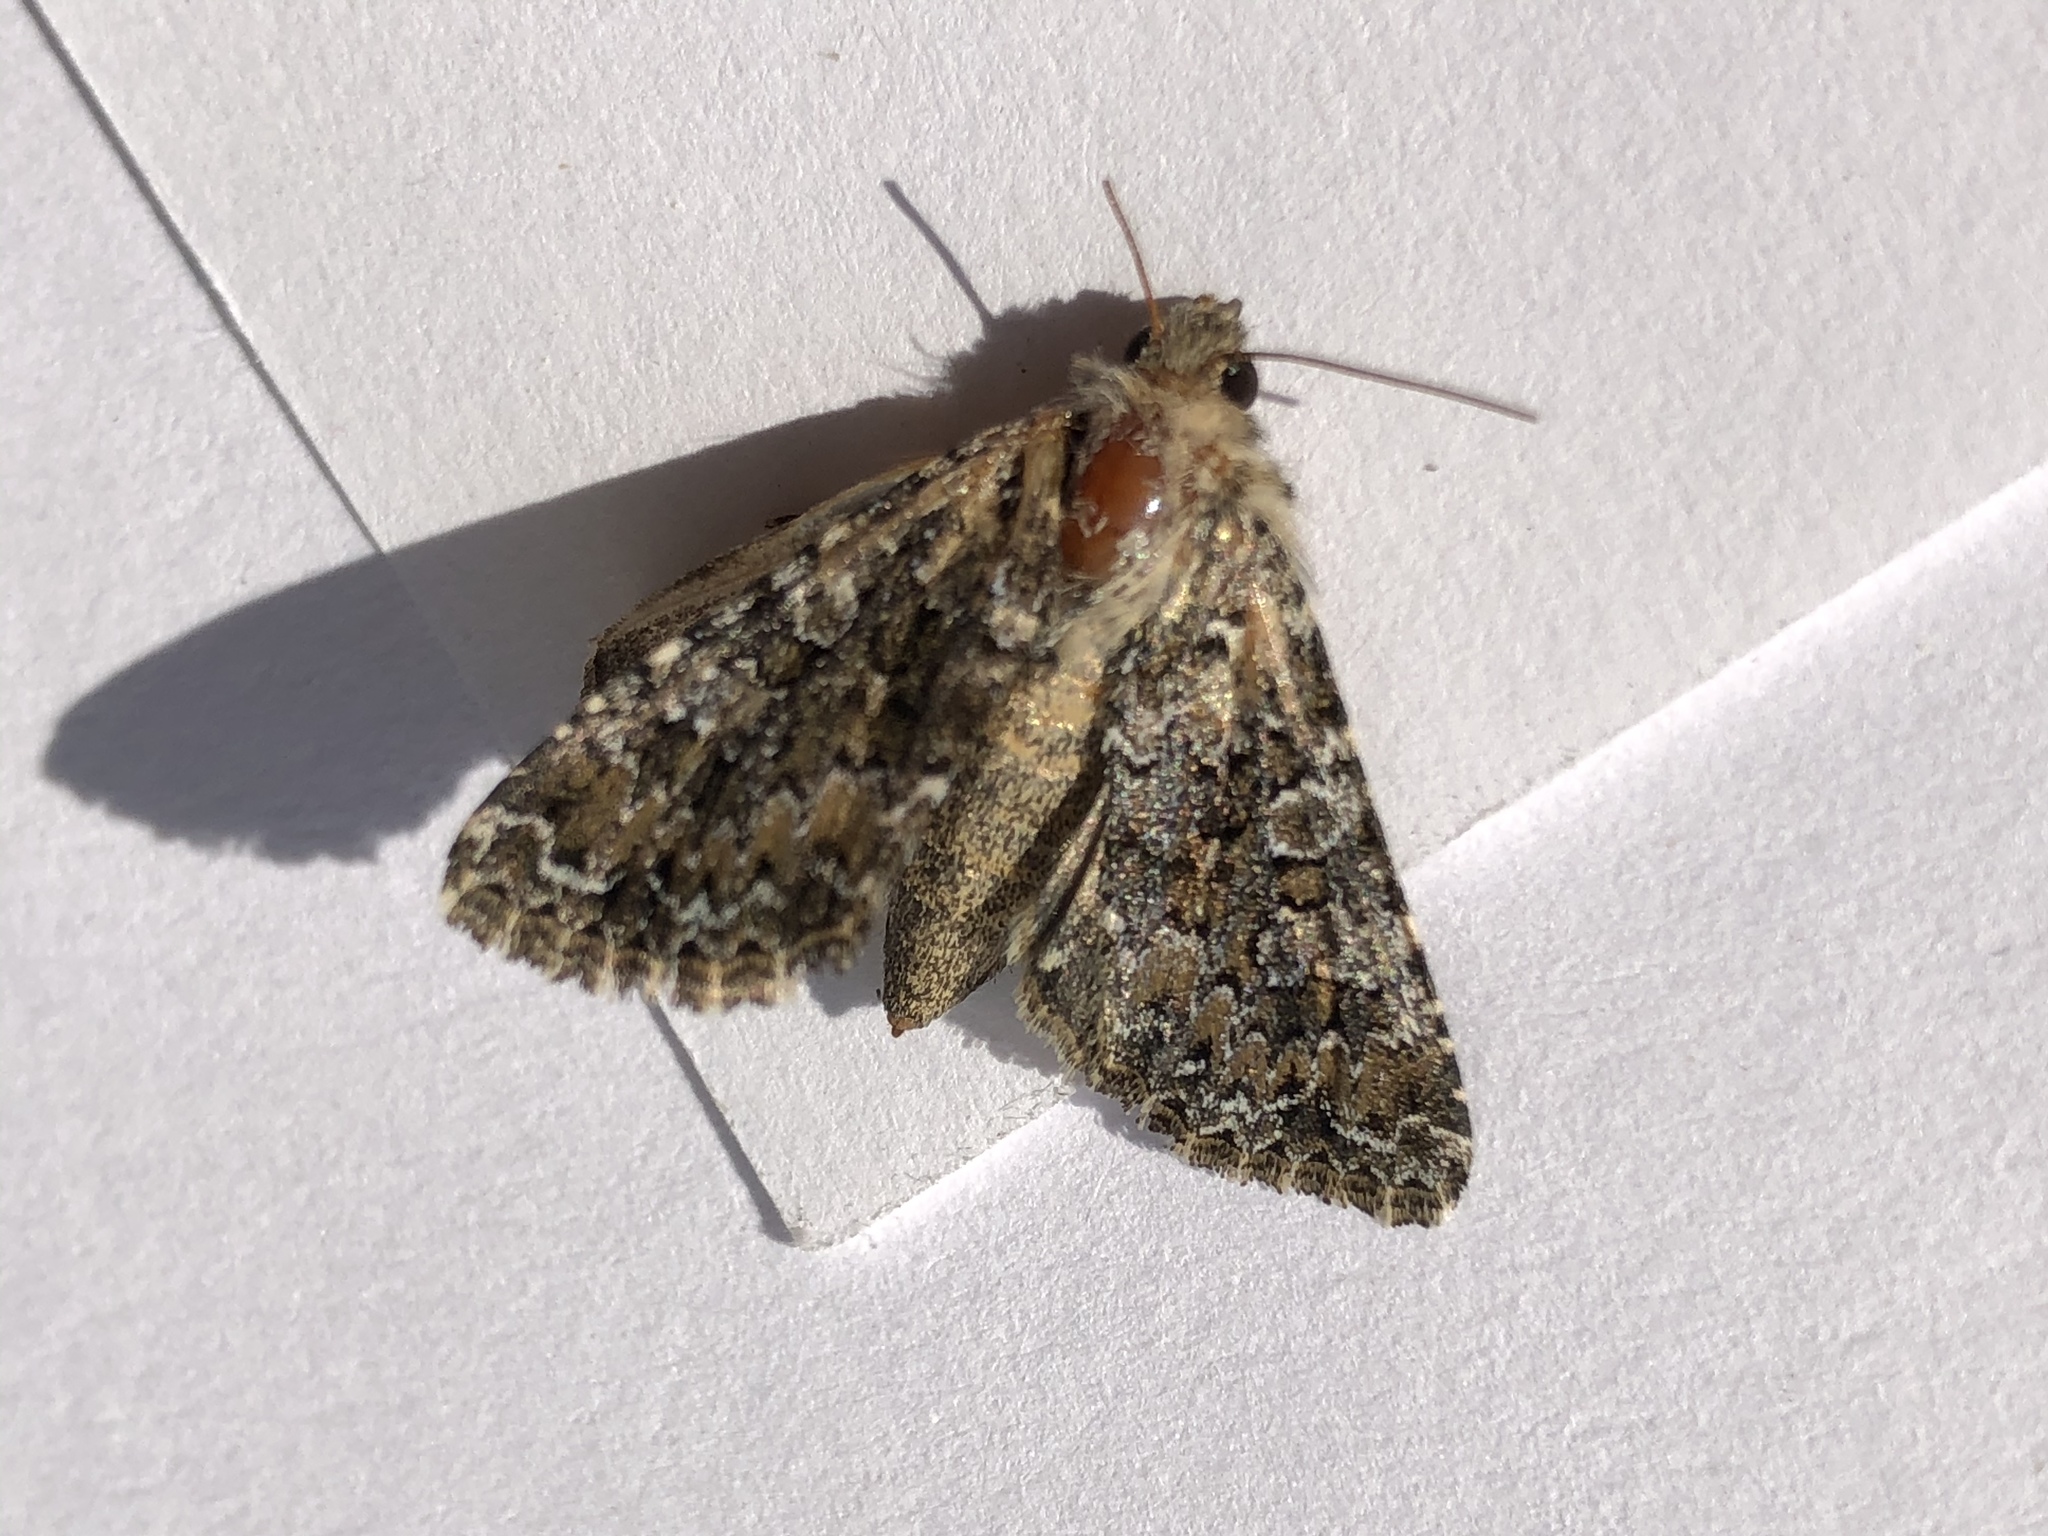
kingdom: Animalia
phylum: Arthropoda
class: Insecta
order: Lepidoptera
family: Noctuidae
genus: Hadena
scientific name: Hadena magnolii
